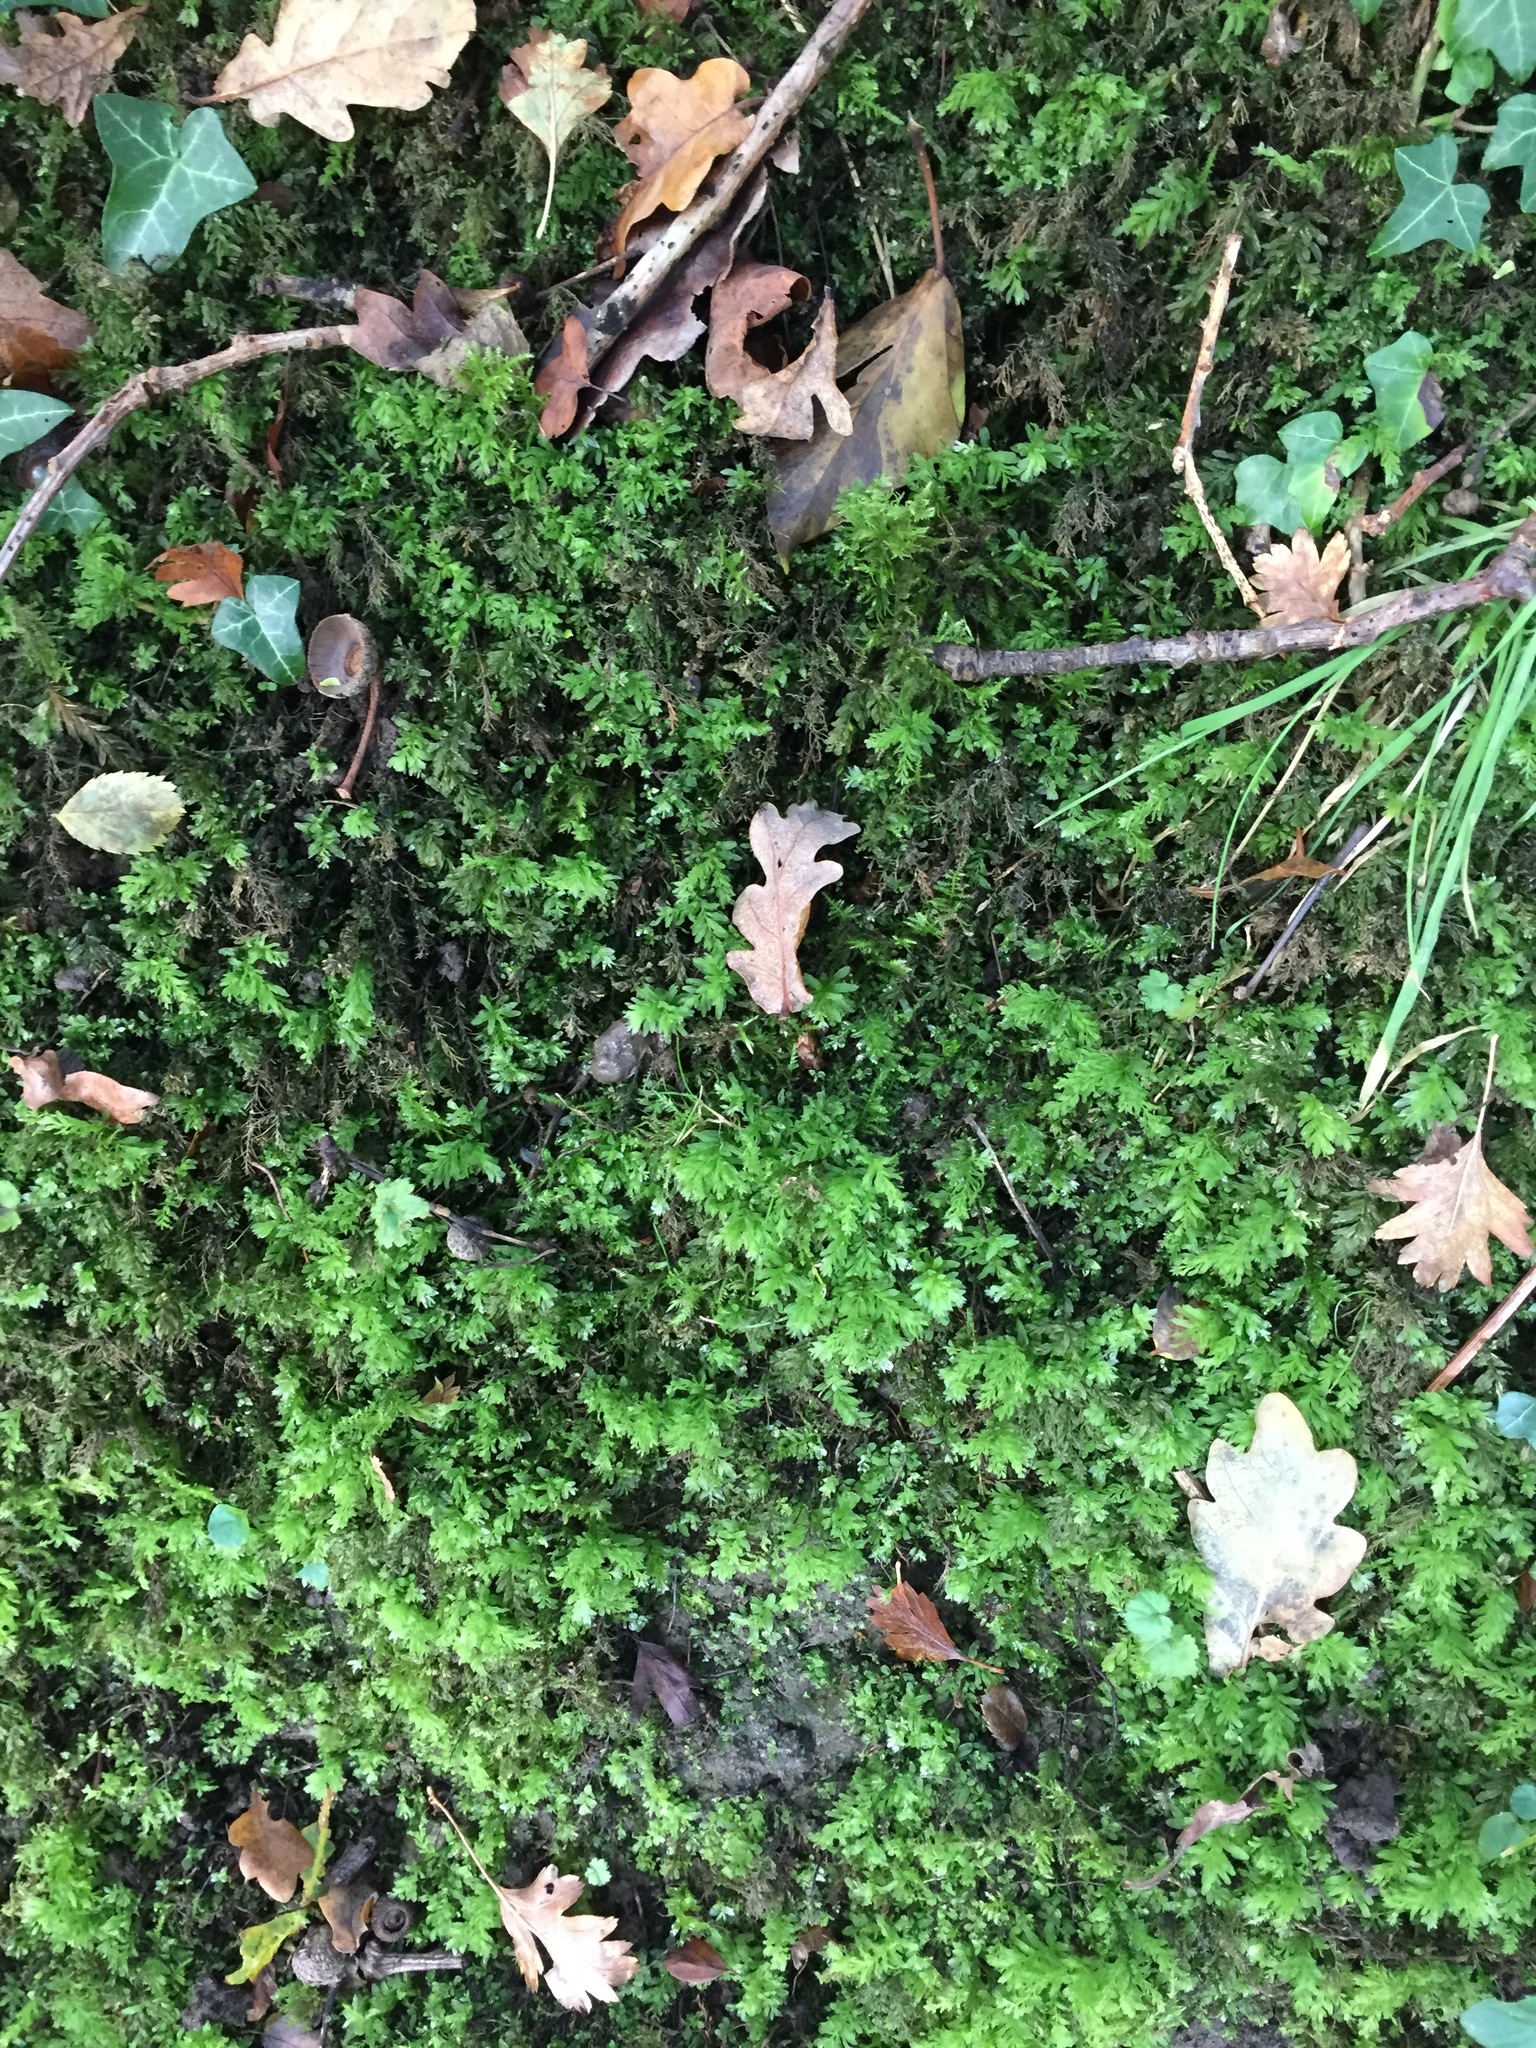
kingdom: Plantae
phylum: Bryophyta
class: Bryopsida
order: Bryales
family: Mniaceae
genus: Plagiomnium
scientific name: Plagiomnium undulatum
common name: Hart's-tongue thyme-moss
